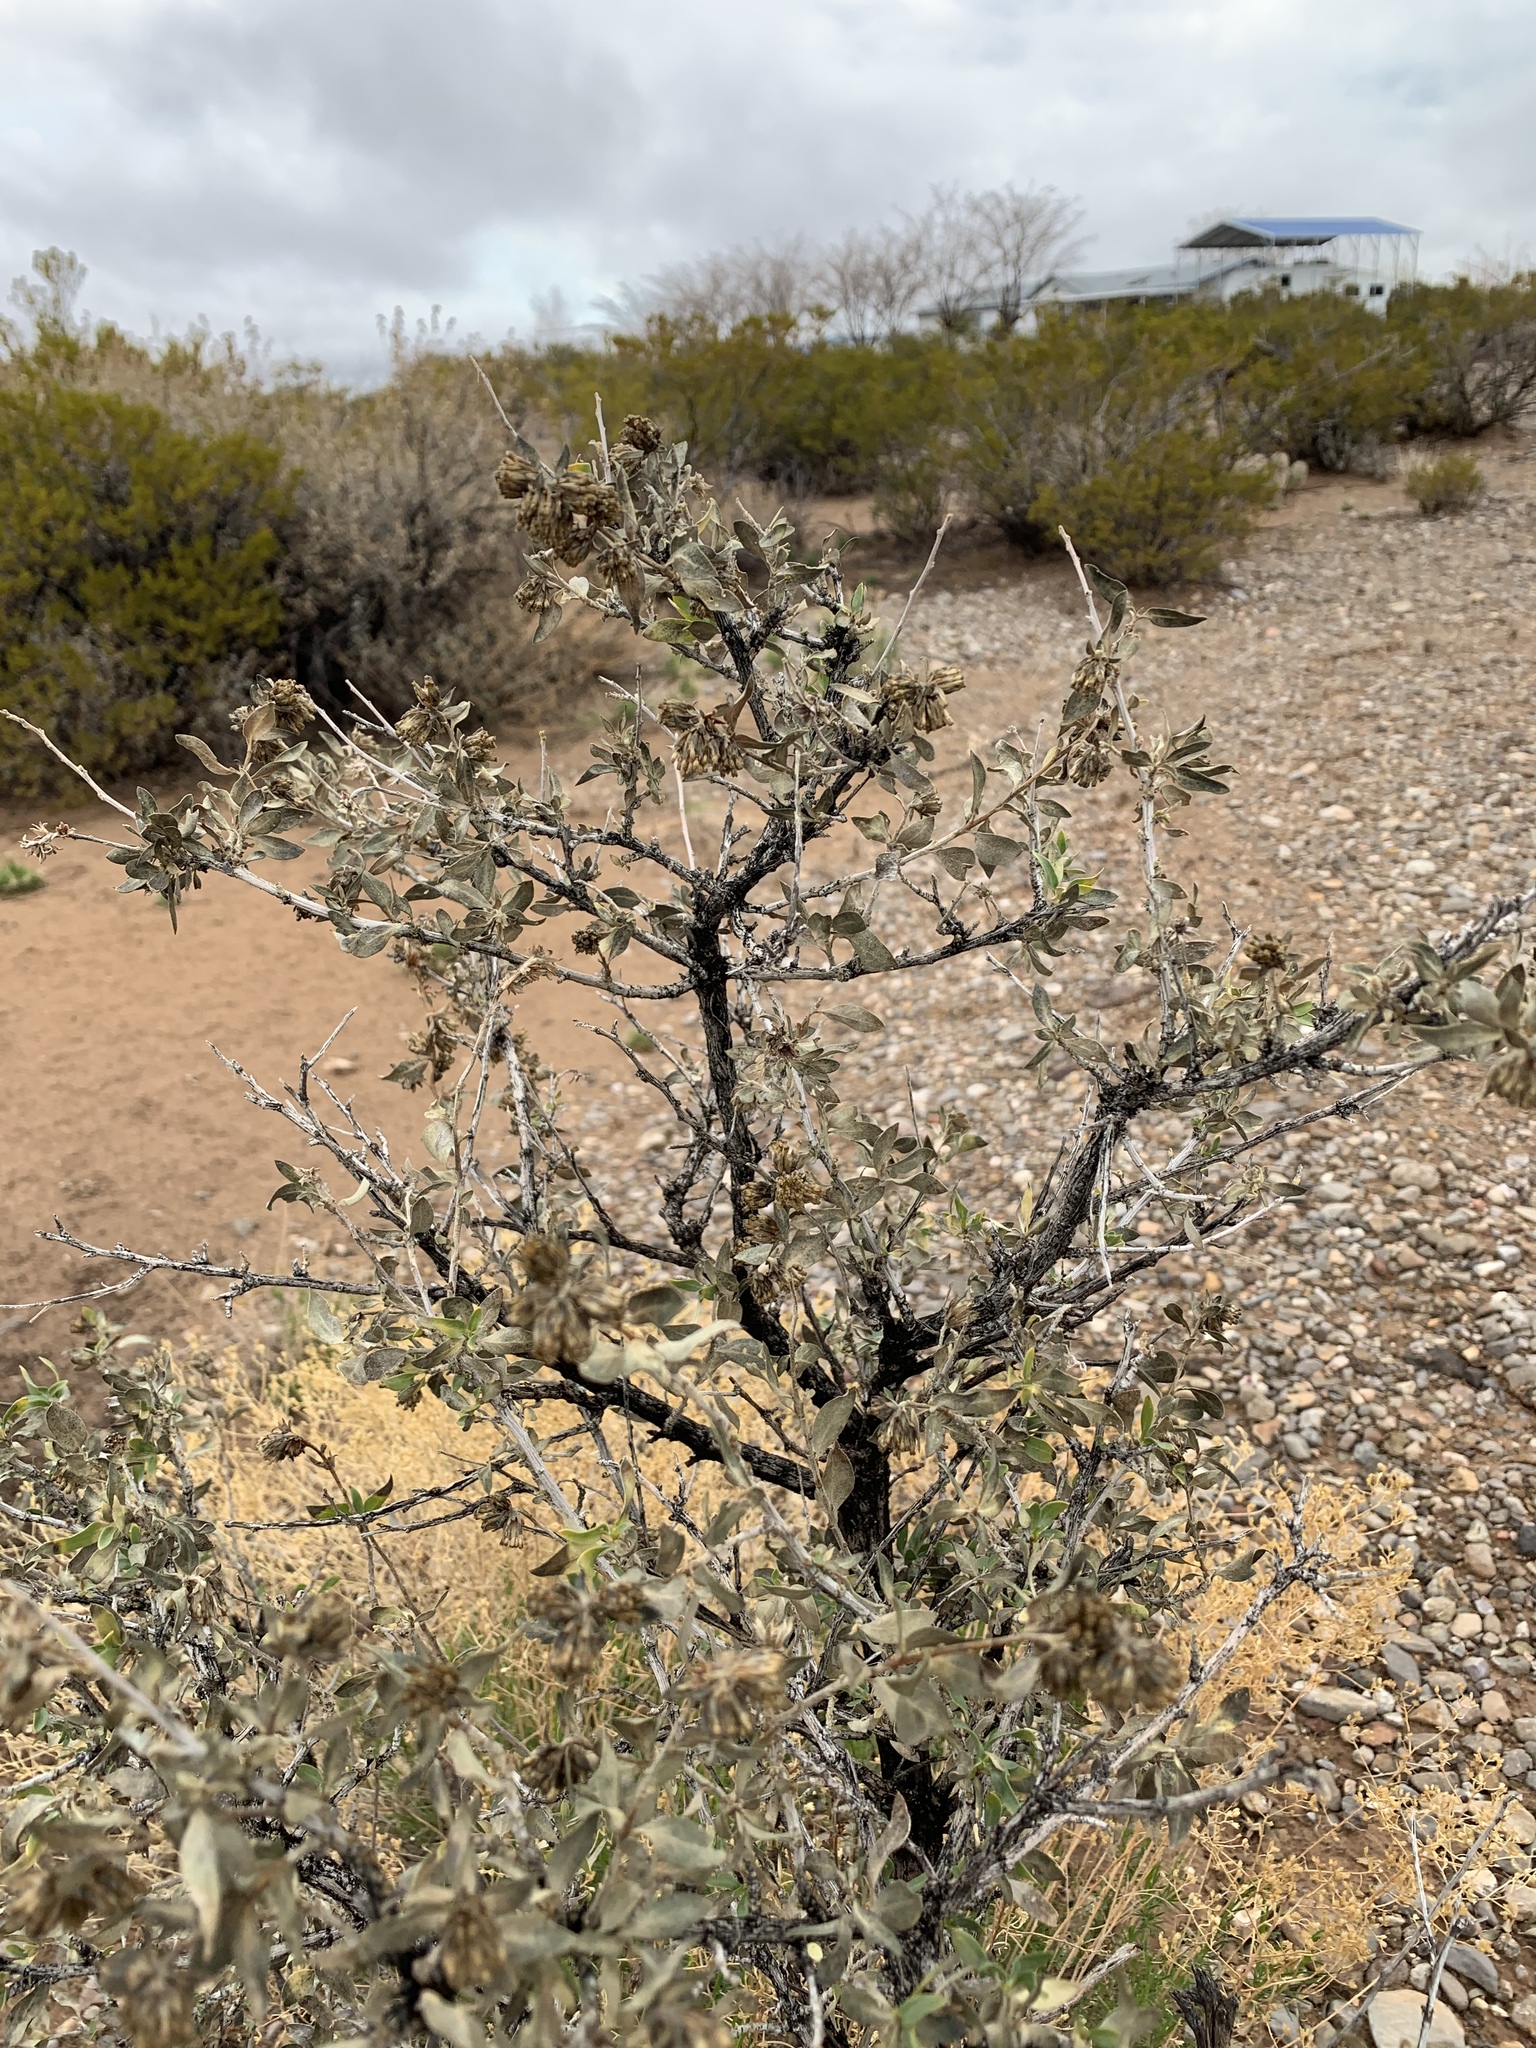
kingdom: Plantae
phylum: Tracheophyta
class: Magnoliopsida
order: Asterales
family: Asteraceae
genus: Flourensia
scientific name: Flourensia cernua
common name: Varnishbush
